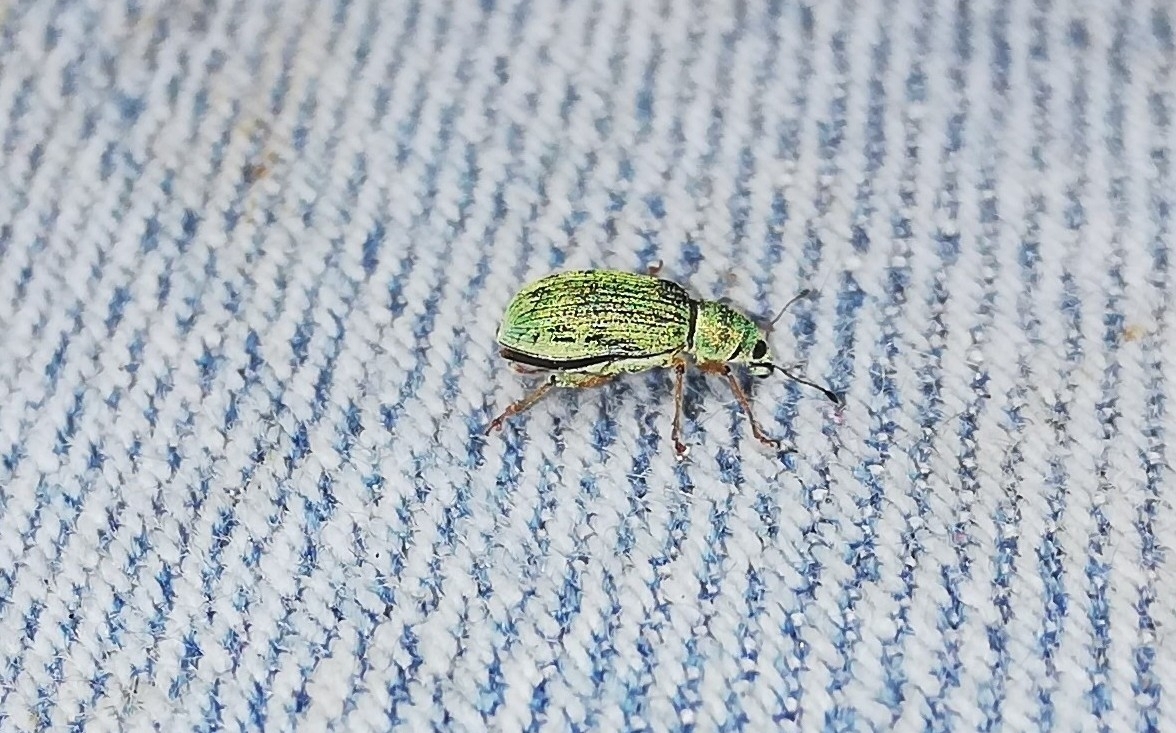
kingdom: Animalia
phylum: Arthropoda
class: Insecta
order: Coleoptera
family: Curculionidae
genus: Polydrusus
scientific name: Polydrusus cervinus
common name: Weevil
